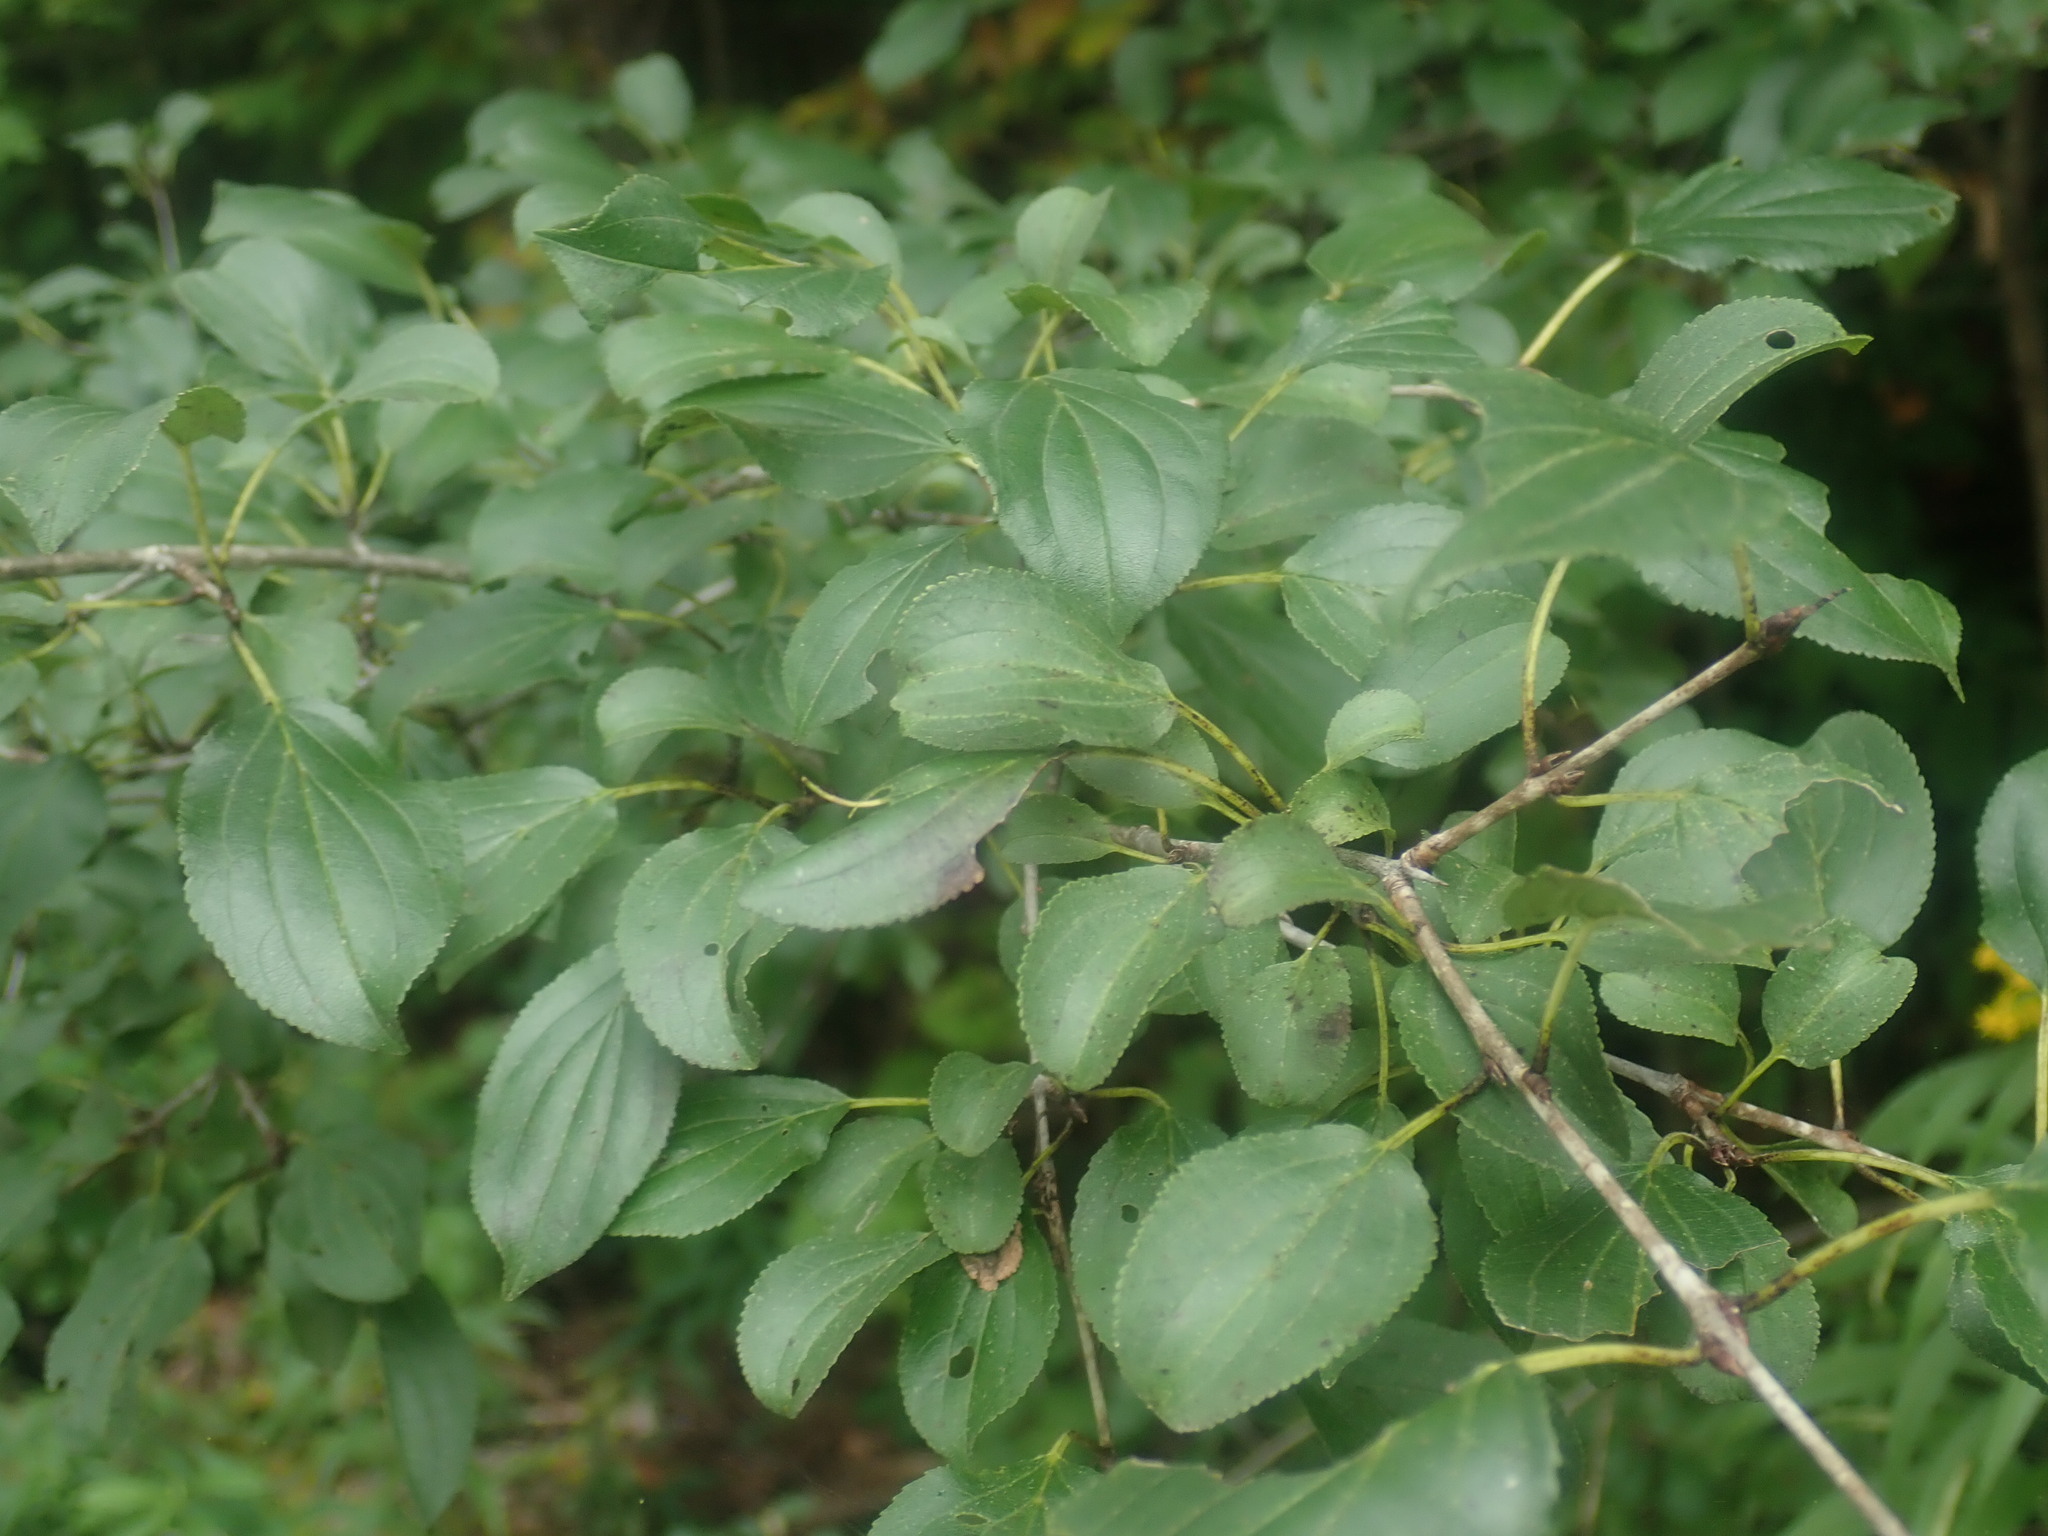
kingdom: Plantae
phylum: Tracheophyta
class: Magnoliopsida
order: Rosales
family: Rhamnaceae
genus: Rhamnus
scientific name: Rhamnus cathartica
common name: Common buckthorn
